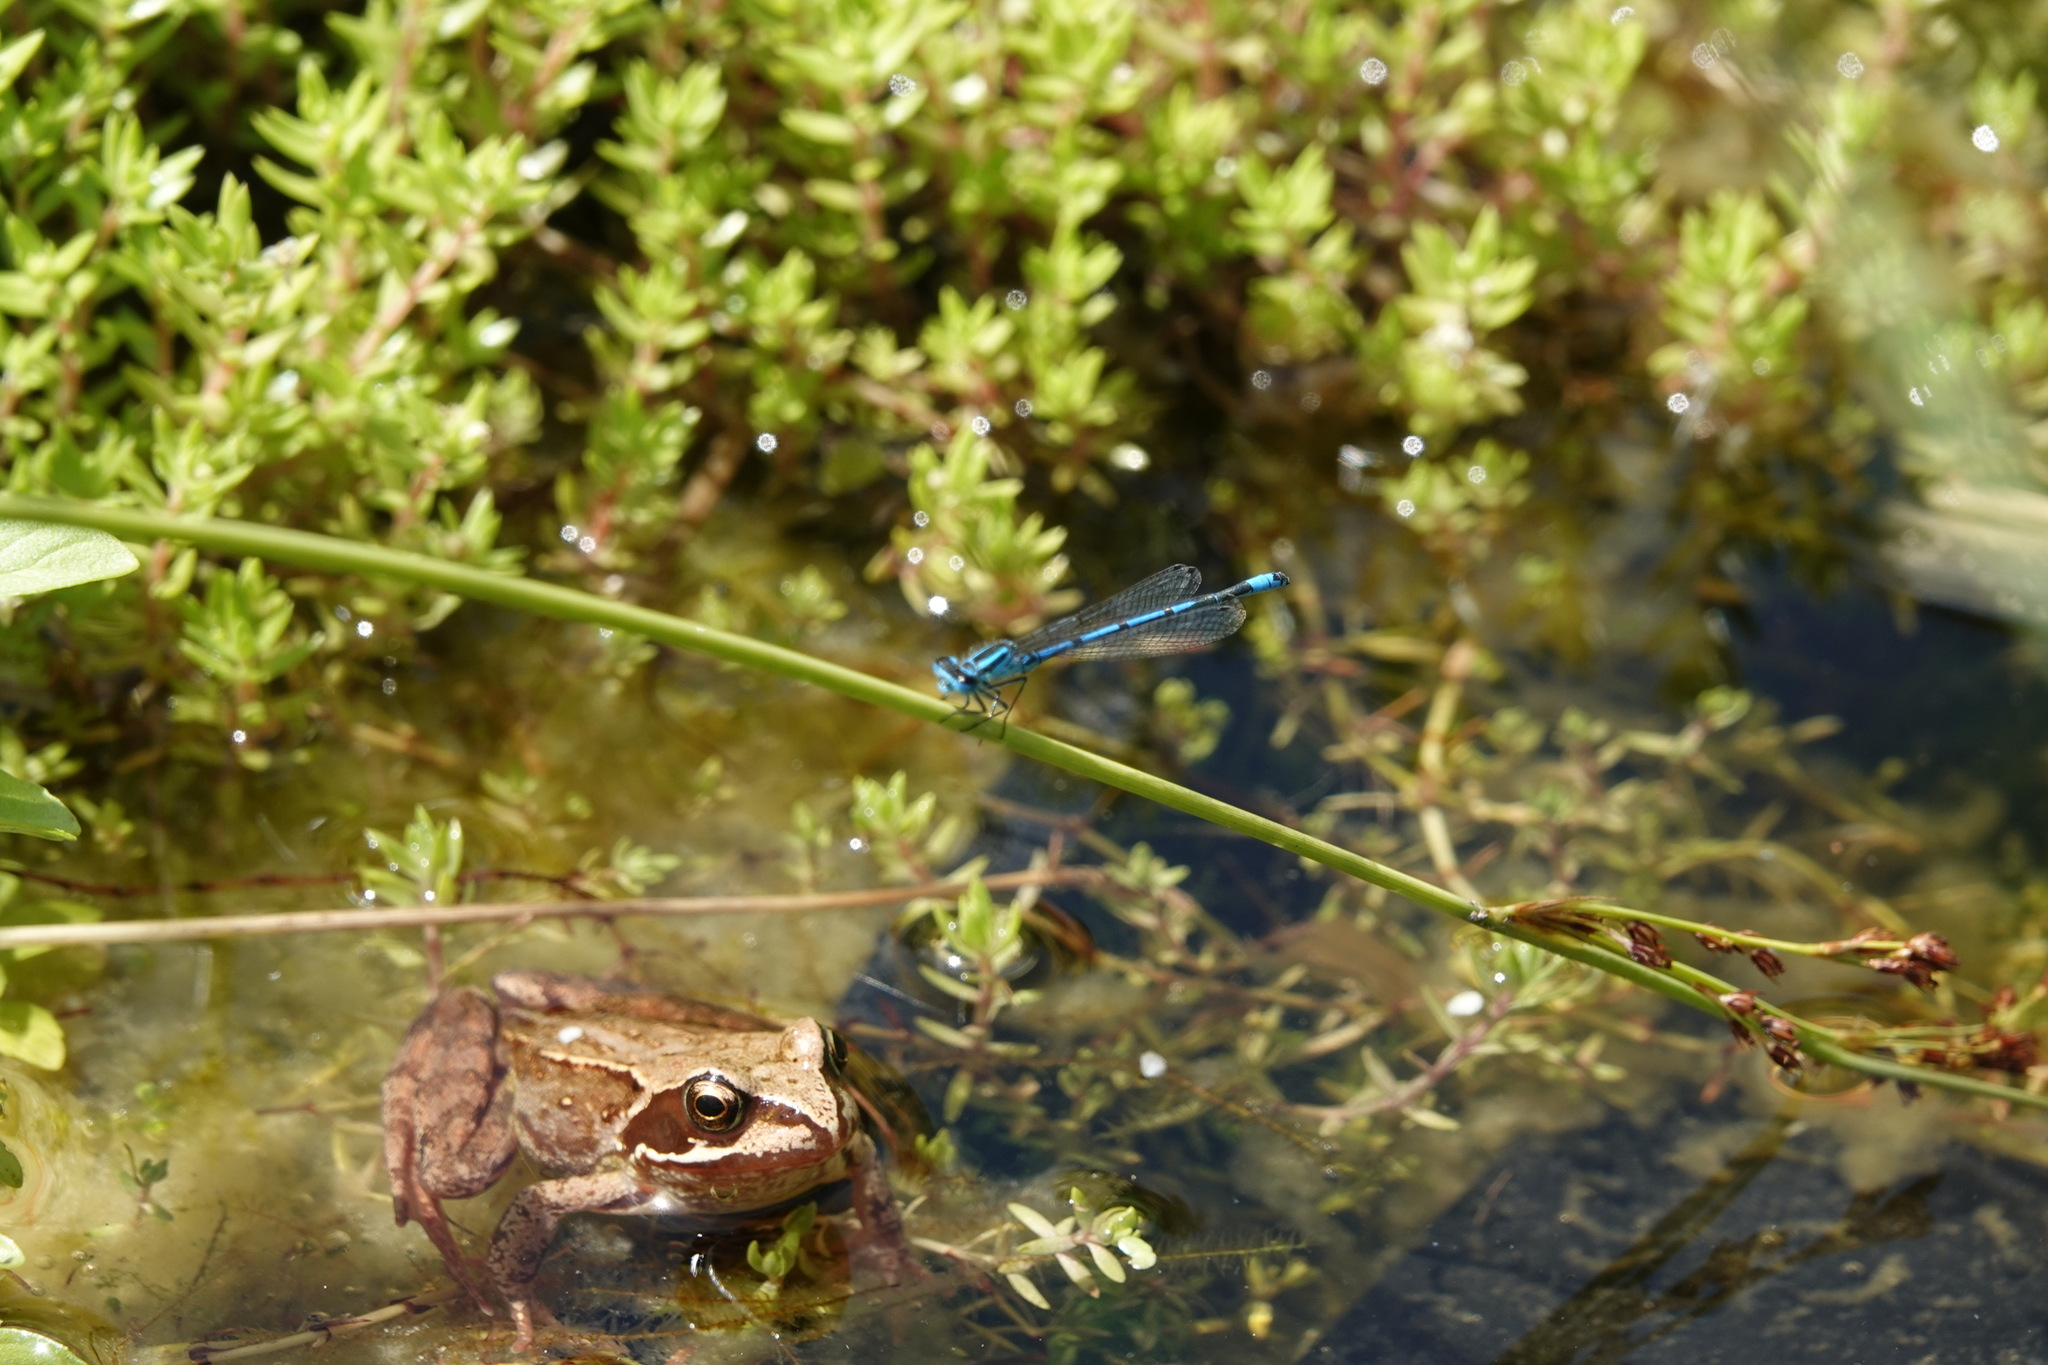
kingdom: Animalia
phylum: Chordata
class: Amphibia
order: Anura
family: Ranidae
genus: Rana
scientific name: Rana temporaria
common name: Common frog
